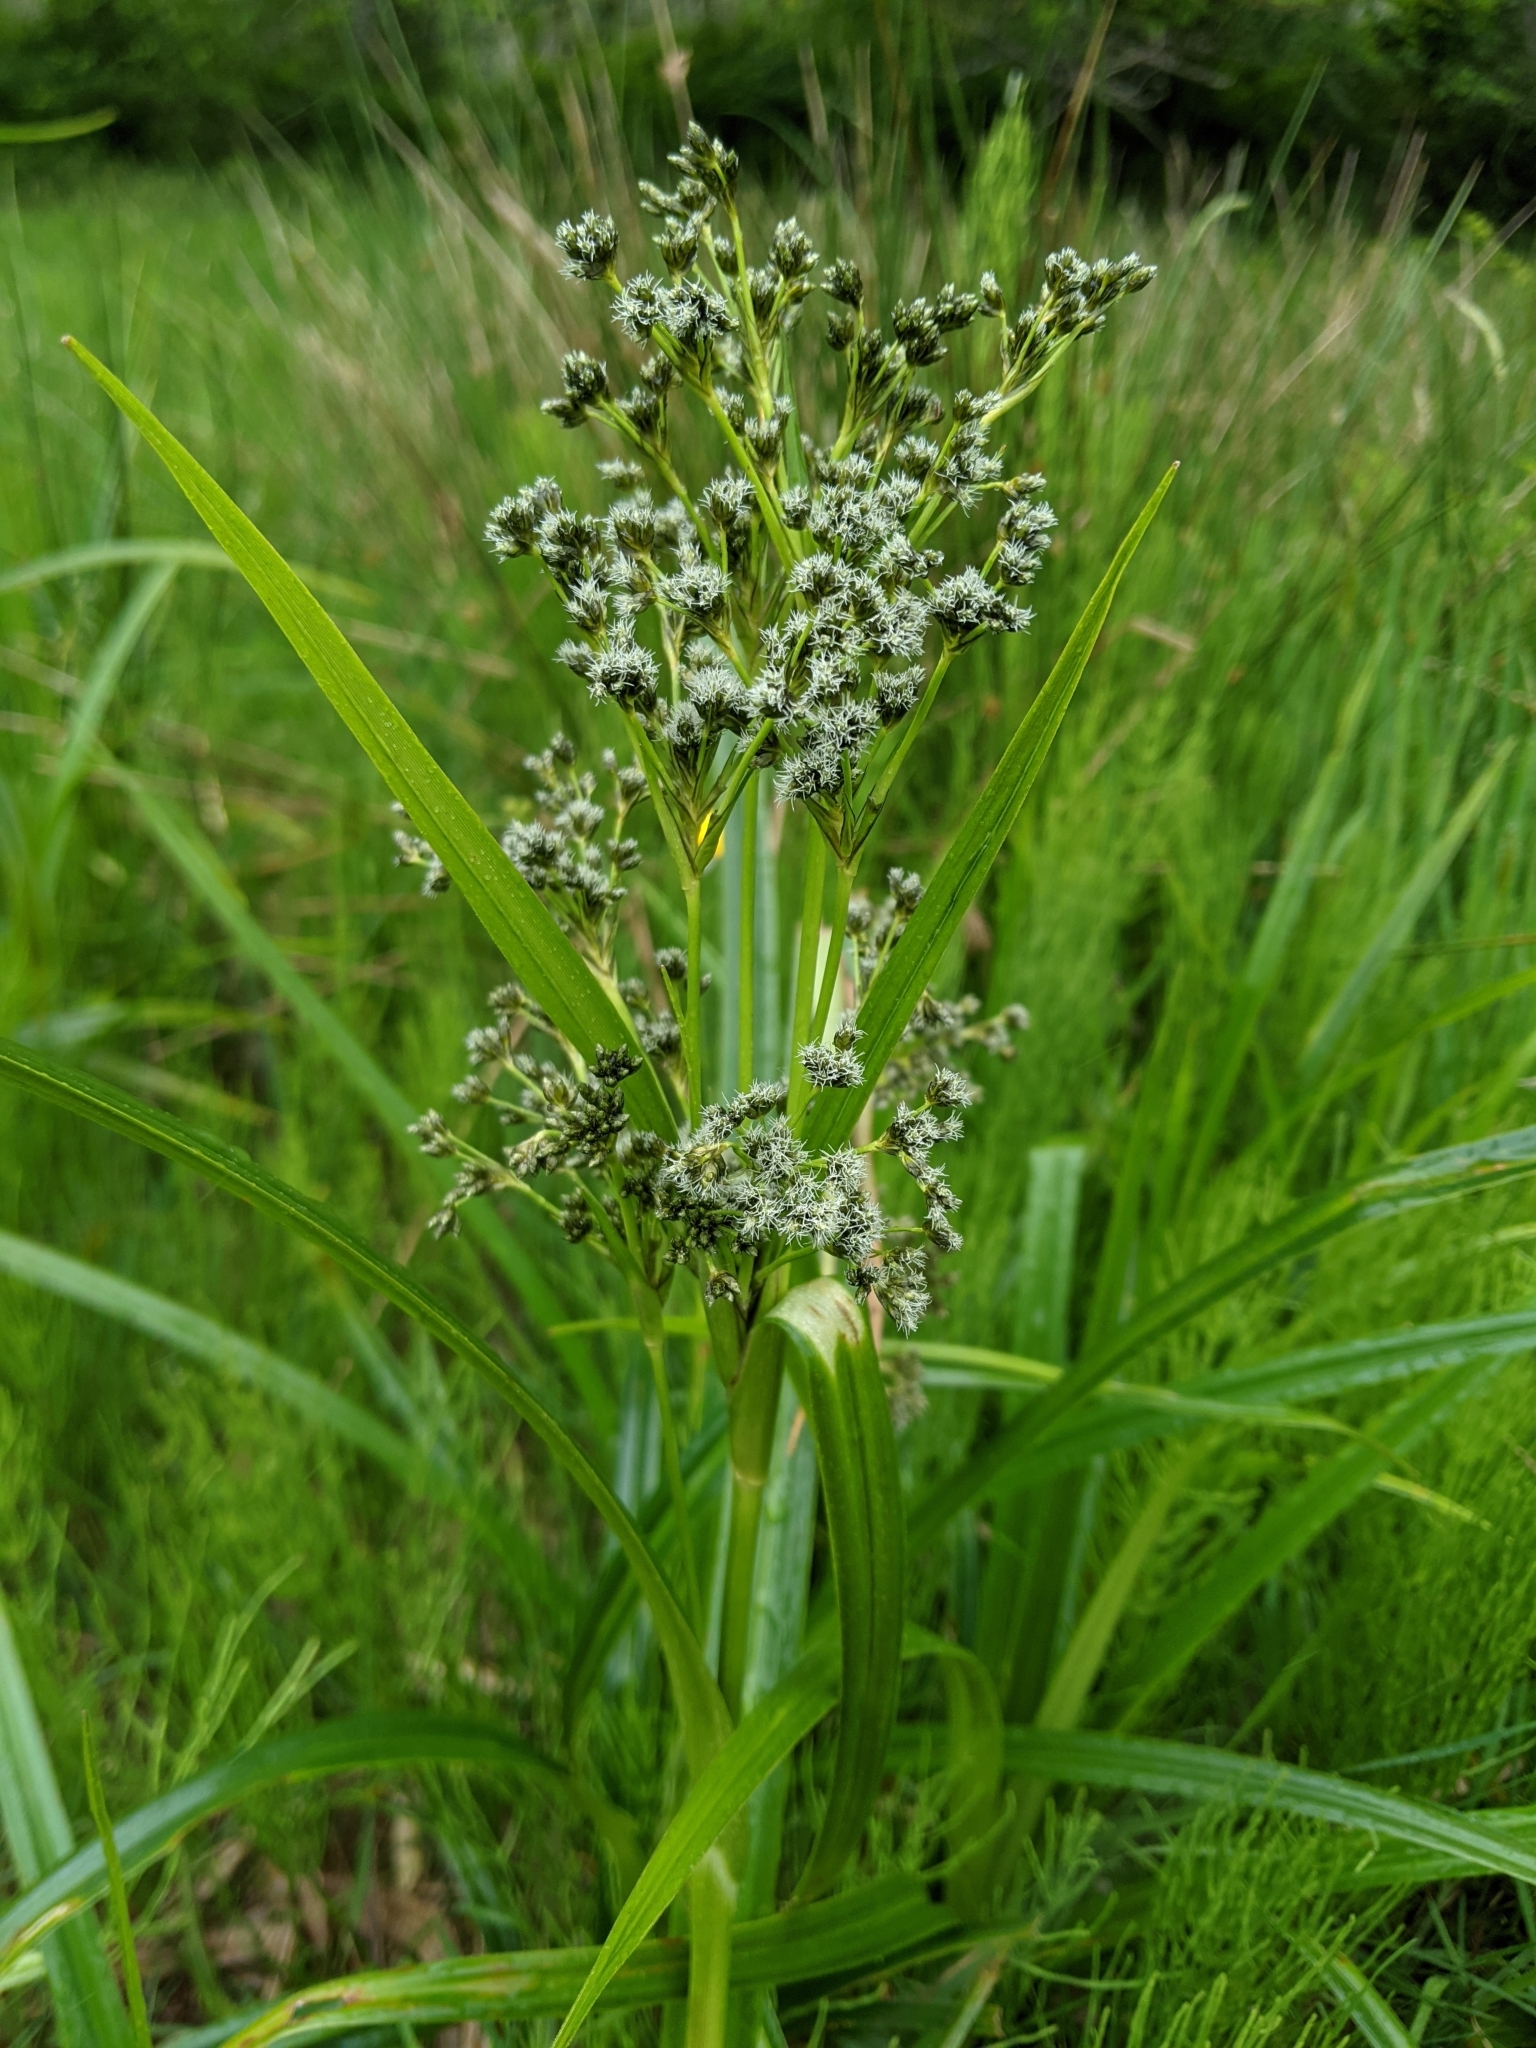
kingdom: Plantae
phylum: Tracheophyta
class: Liliopsida
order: Poales
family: Cyperaceae
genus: Scirpus
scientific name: Scirpus microcarpus
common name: Panicled bulrush
